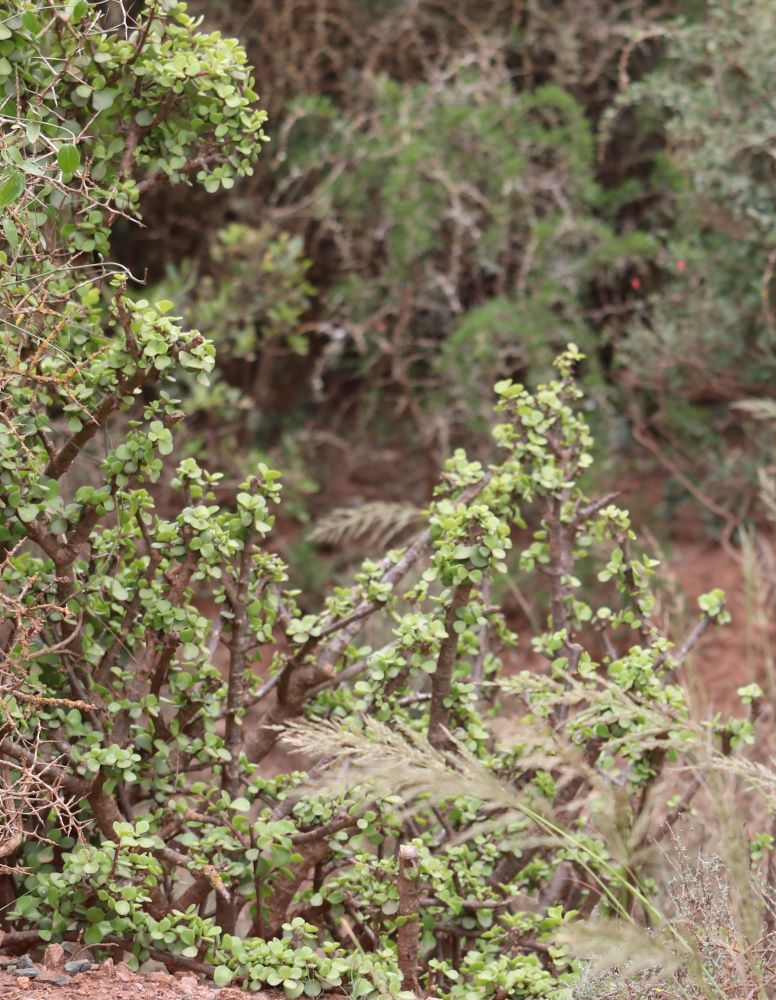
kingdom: Plantae
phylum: Tracheophyta
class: Magnoliopsida
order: Caryophyllales
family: Didiereaceae
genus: Portulacaria
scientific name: Portulacaria afra
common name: Elephant-bush
